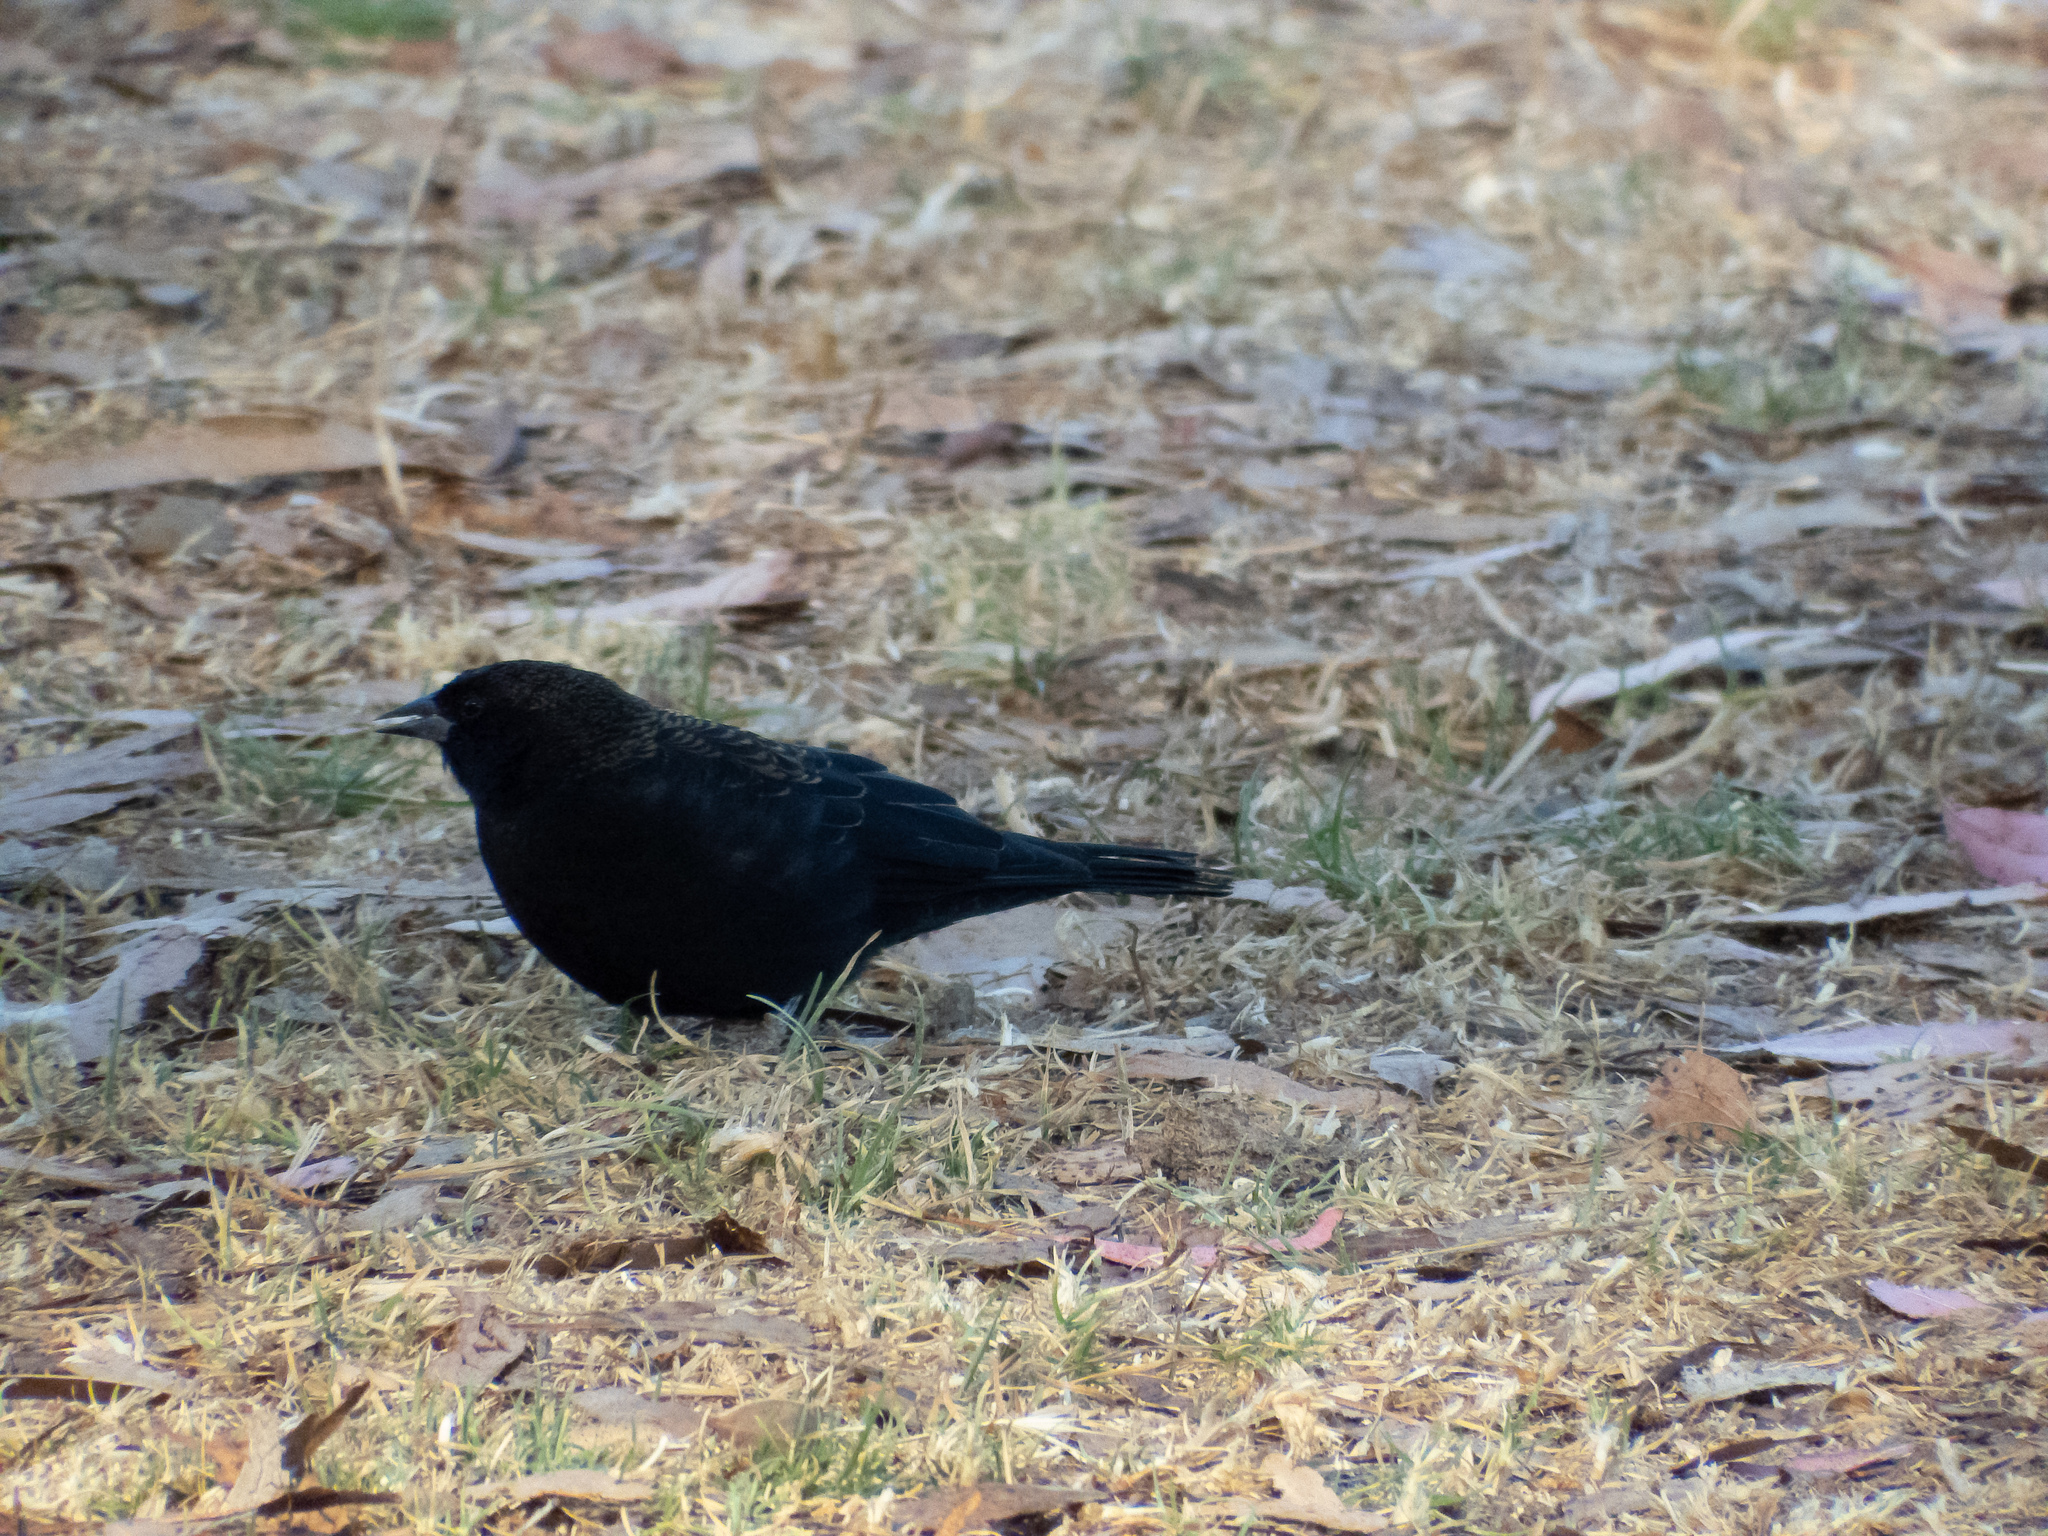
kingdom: Animalia
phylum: Chordata
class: Aves
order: Passeriformes
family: Icteridae
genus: Agelaius
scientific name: Agelaius phoeniceus
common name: Red-winged blackbird
